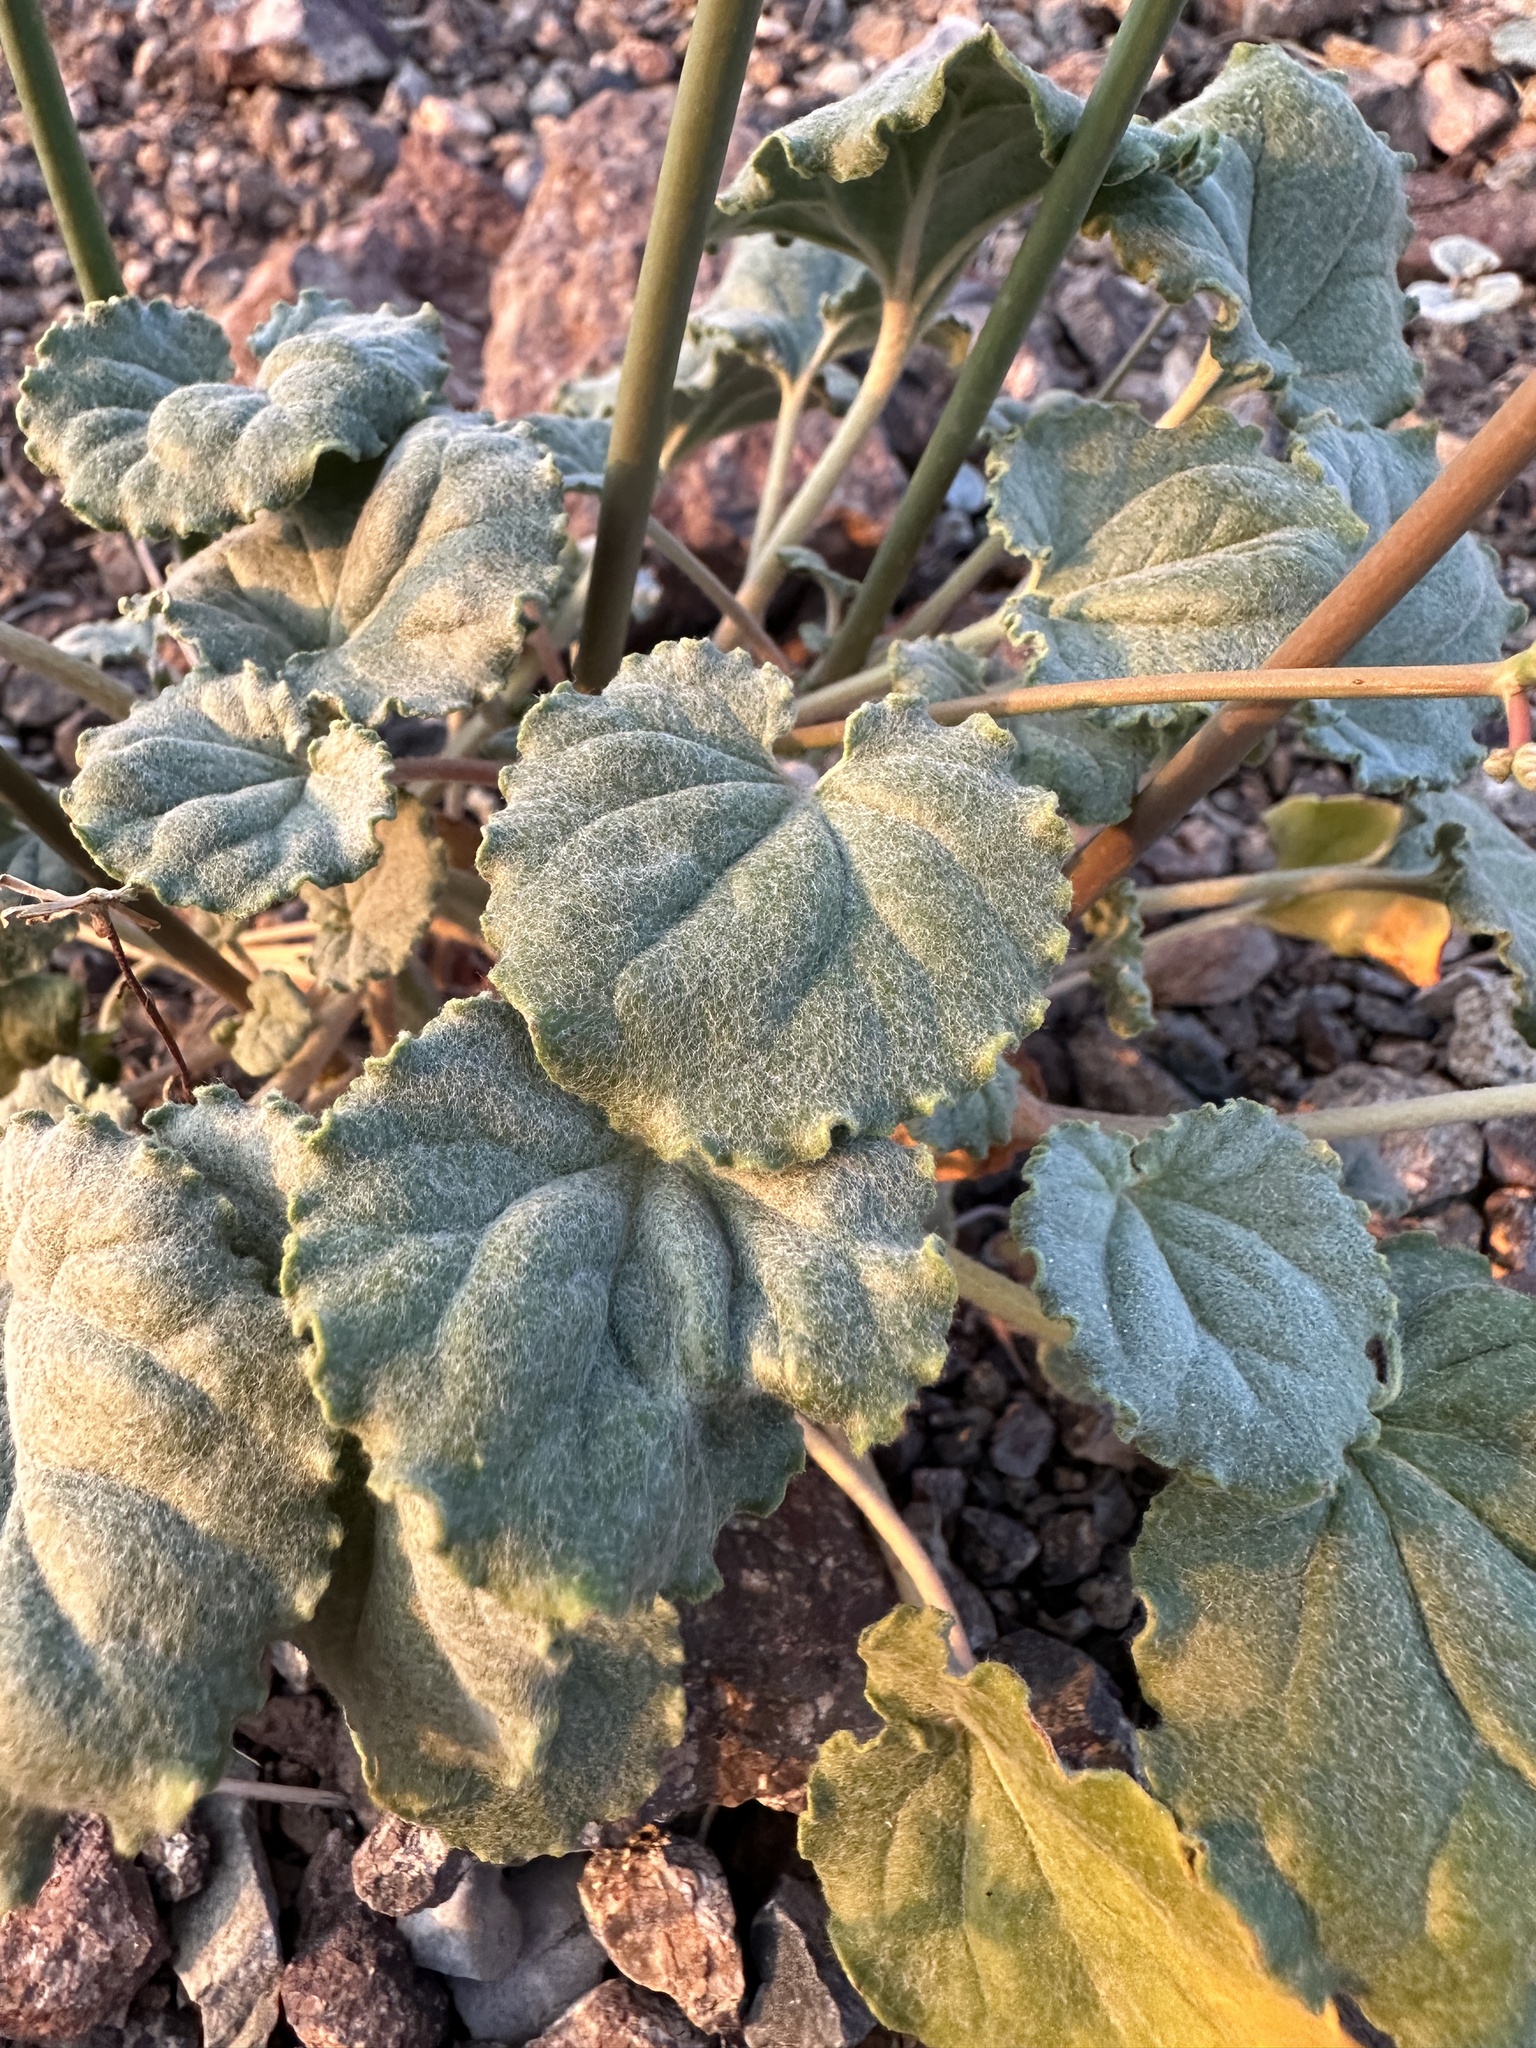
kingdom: Plantae
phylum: Tracheophyta
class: Magnoliopsida
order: Caryophyllales
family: Polygonaceae
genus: Eriogonum
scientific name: Eriogonum hoffmannii
